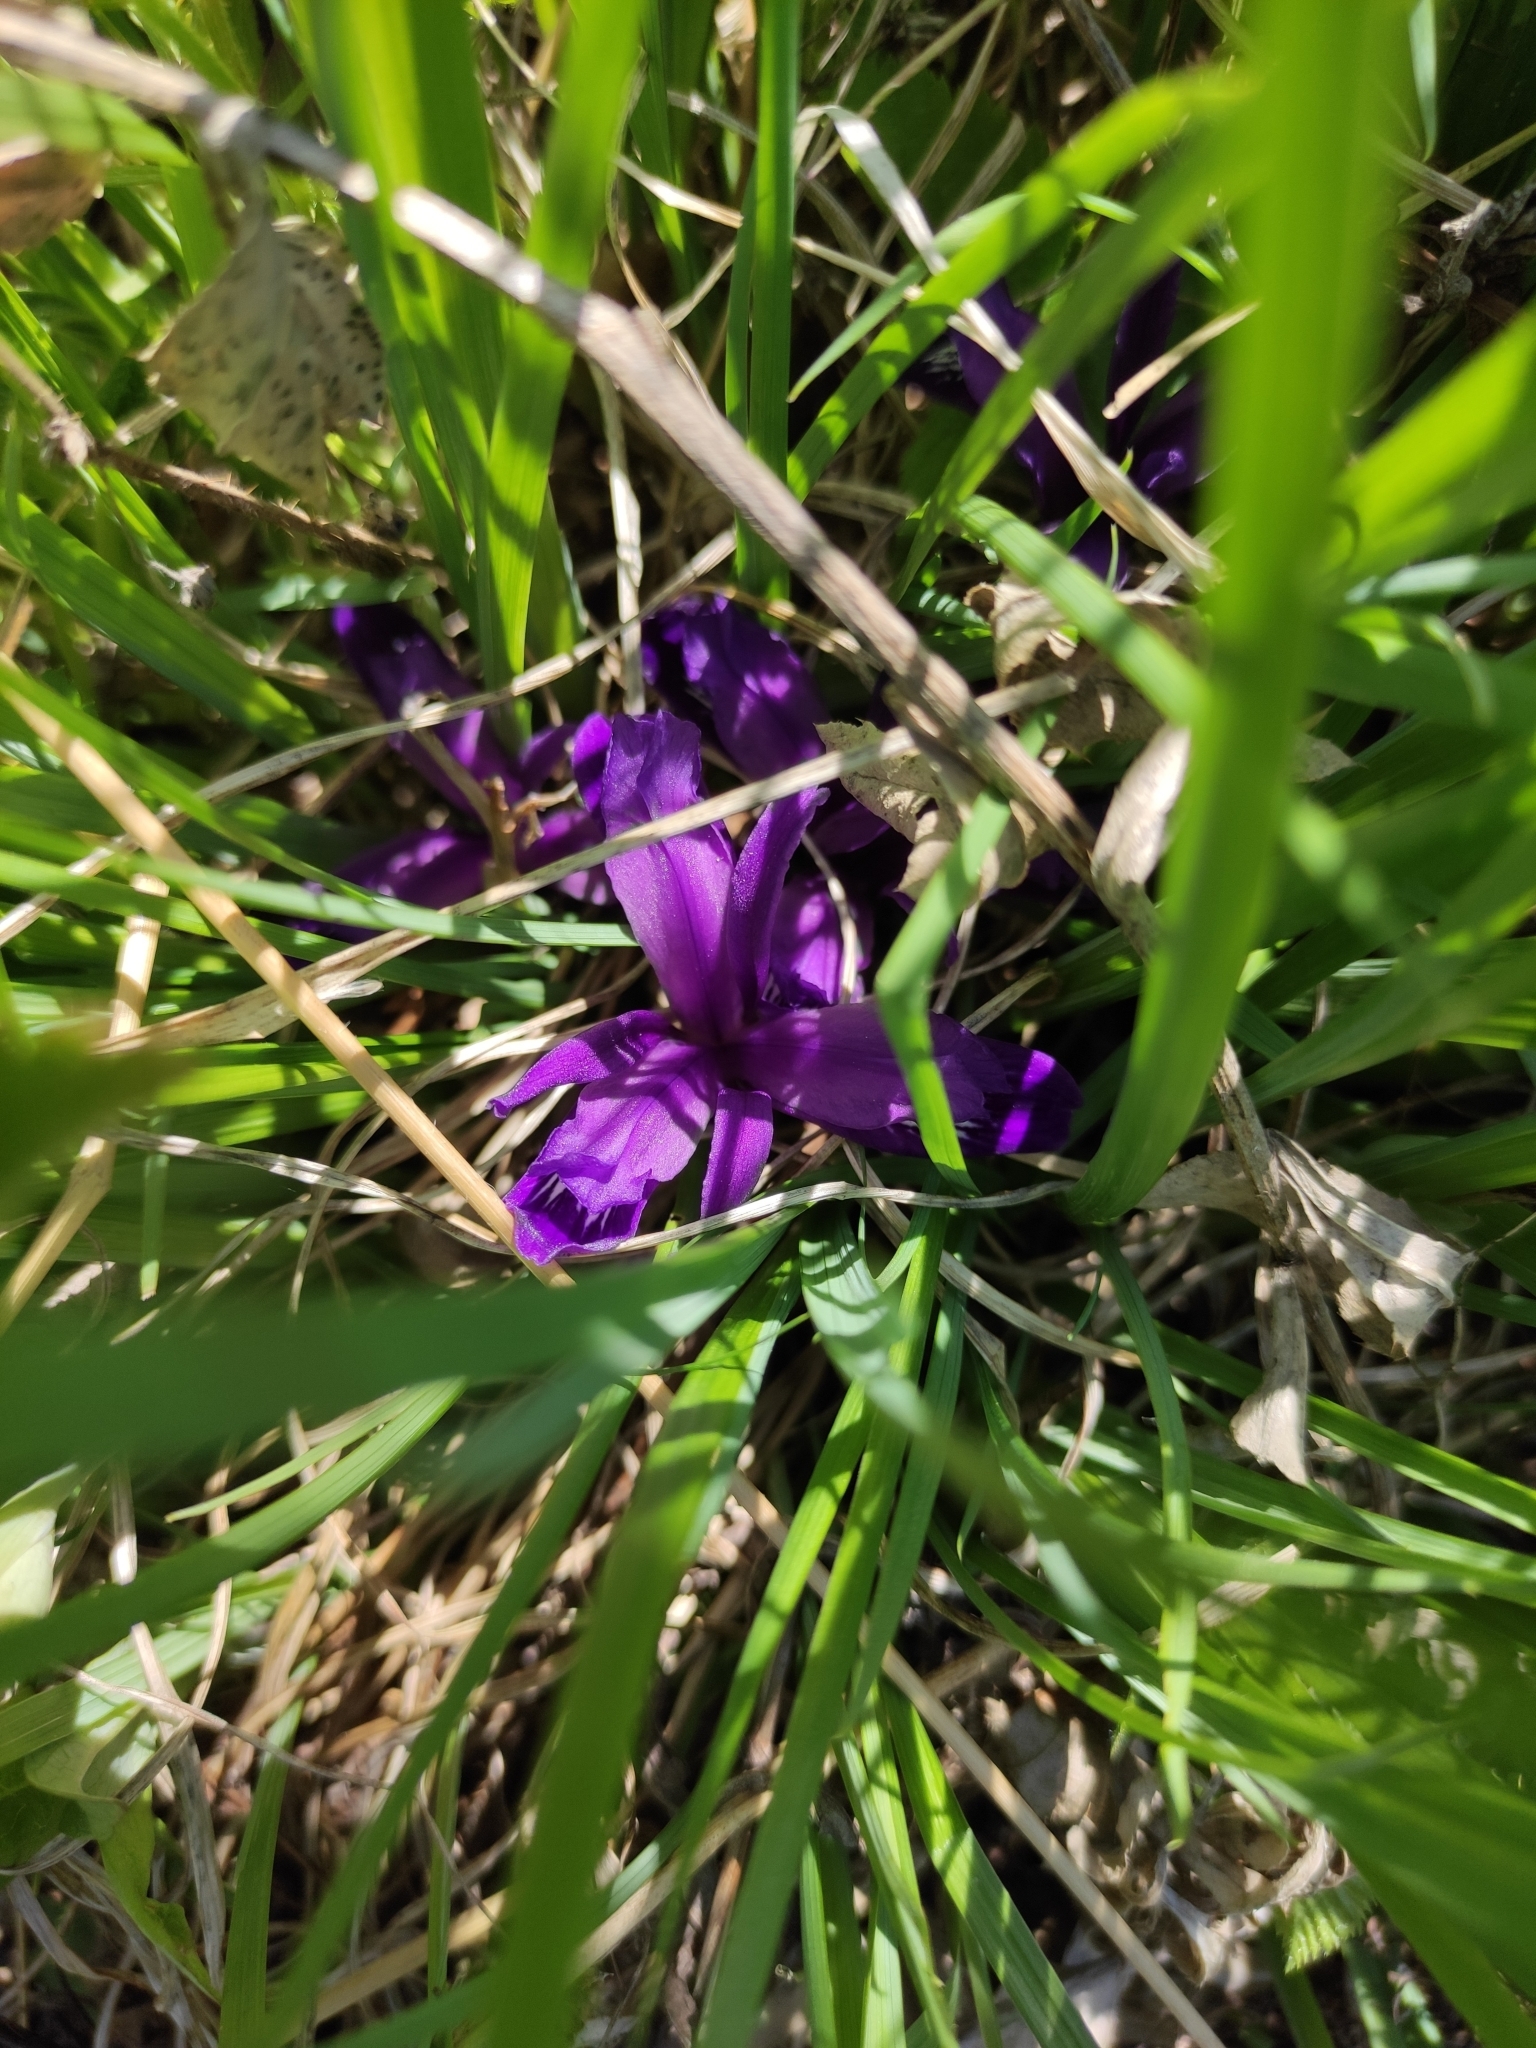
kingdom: Plantae
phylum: Tracheophyta
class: Liliopsida
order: Asparagales
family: Iridaceae
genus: Iris
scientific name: Iris ruthenica
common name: Purple-bract iris
